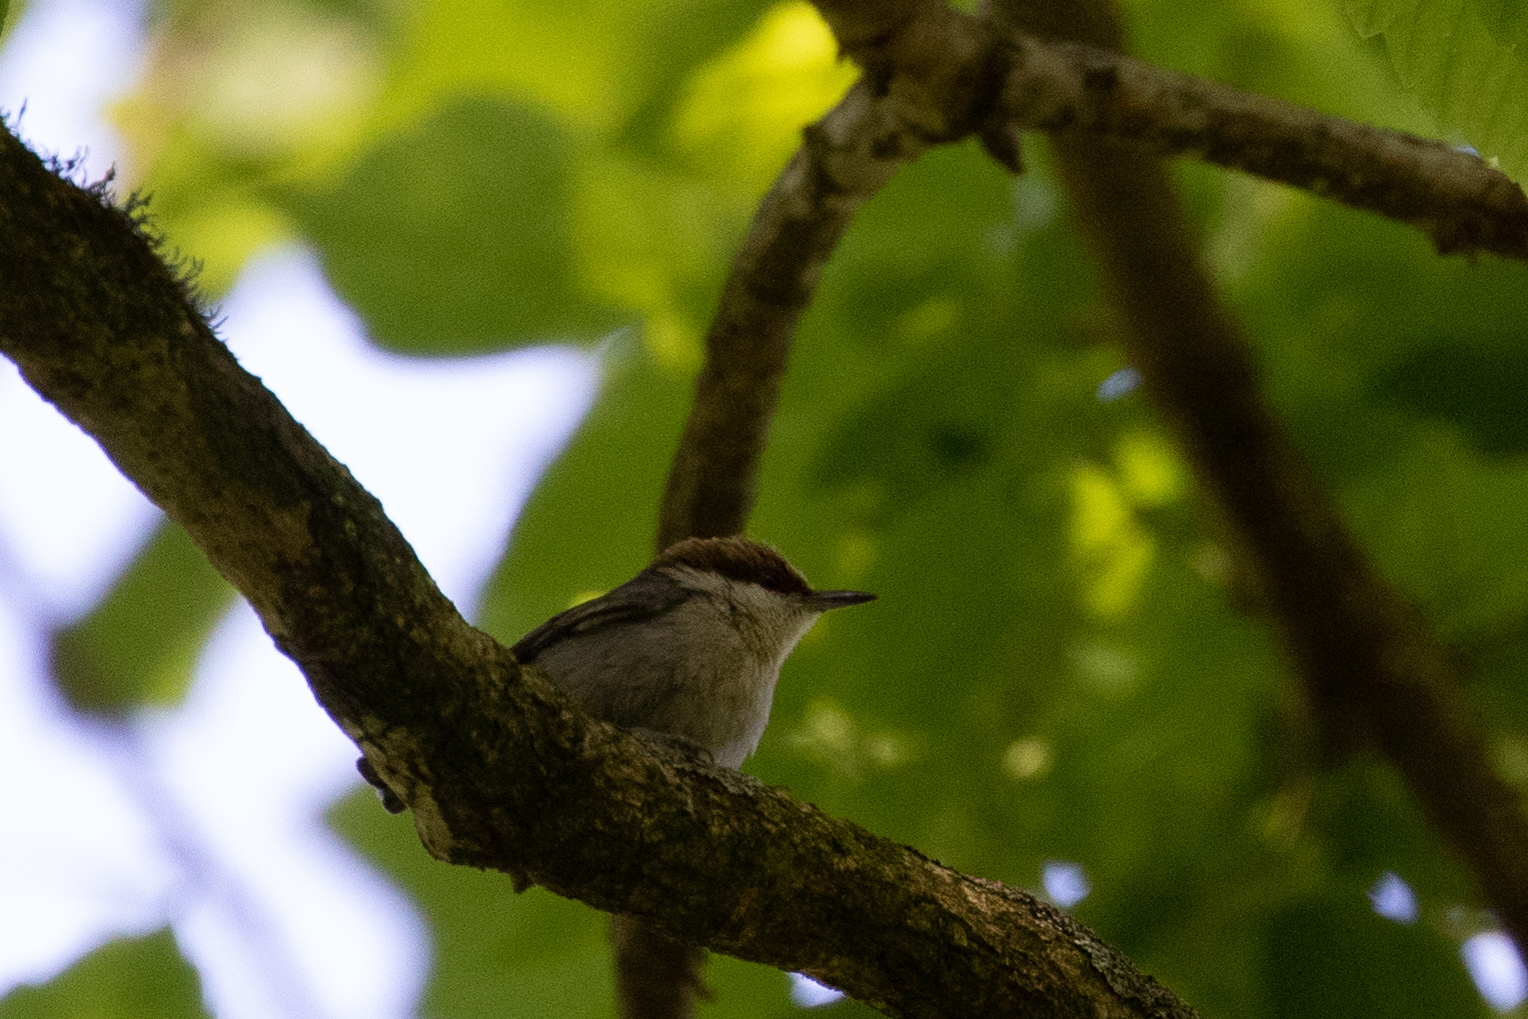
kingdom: Animalia
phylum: Chordata
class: Aves
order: Passeriformes
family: Sittidae
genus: Sitta
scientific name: Sitta pusilla
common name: Brown-headed nuthatch
